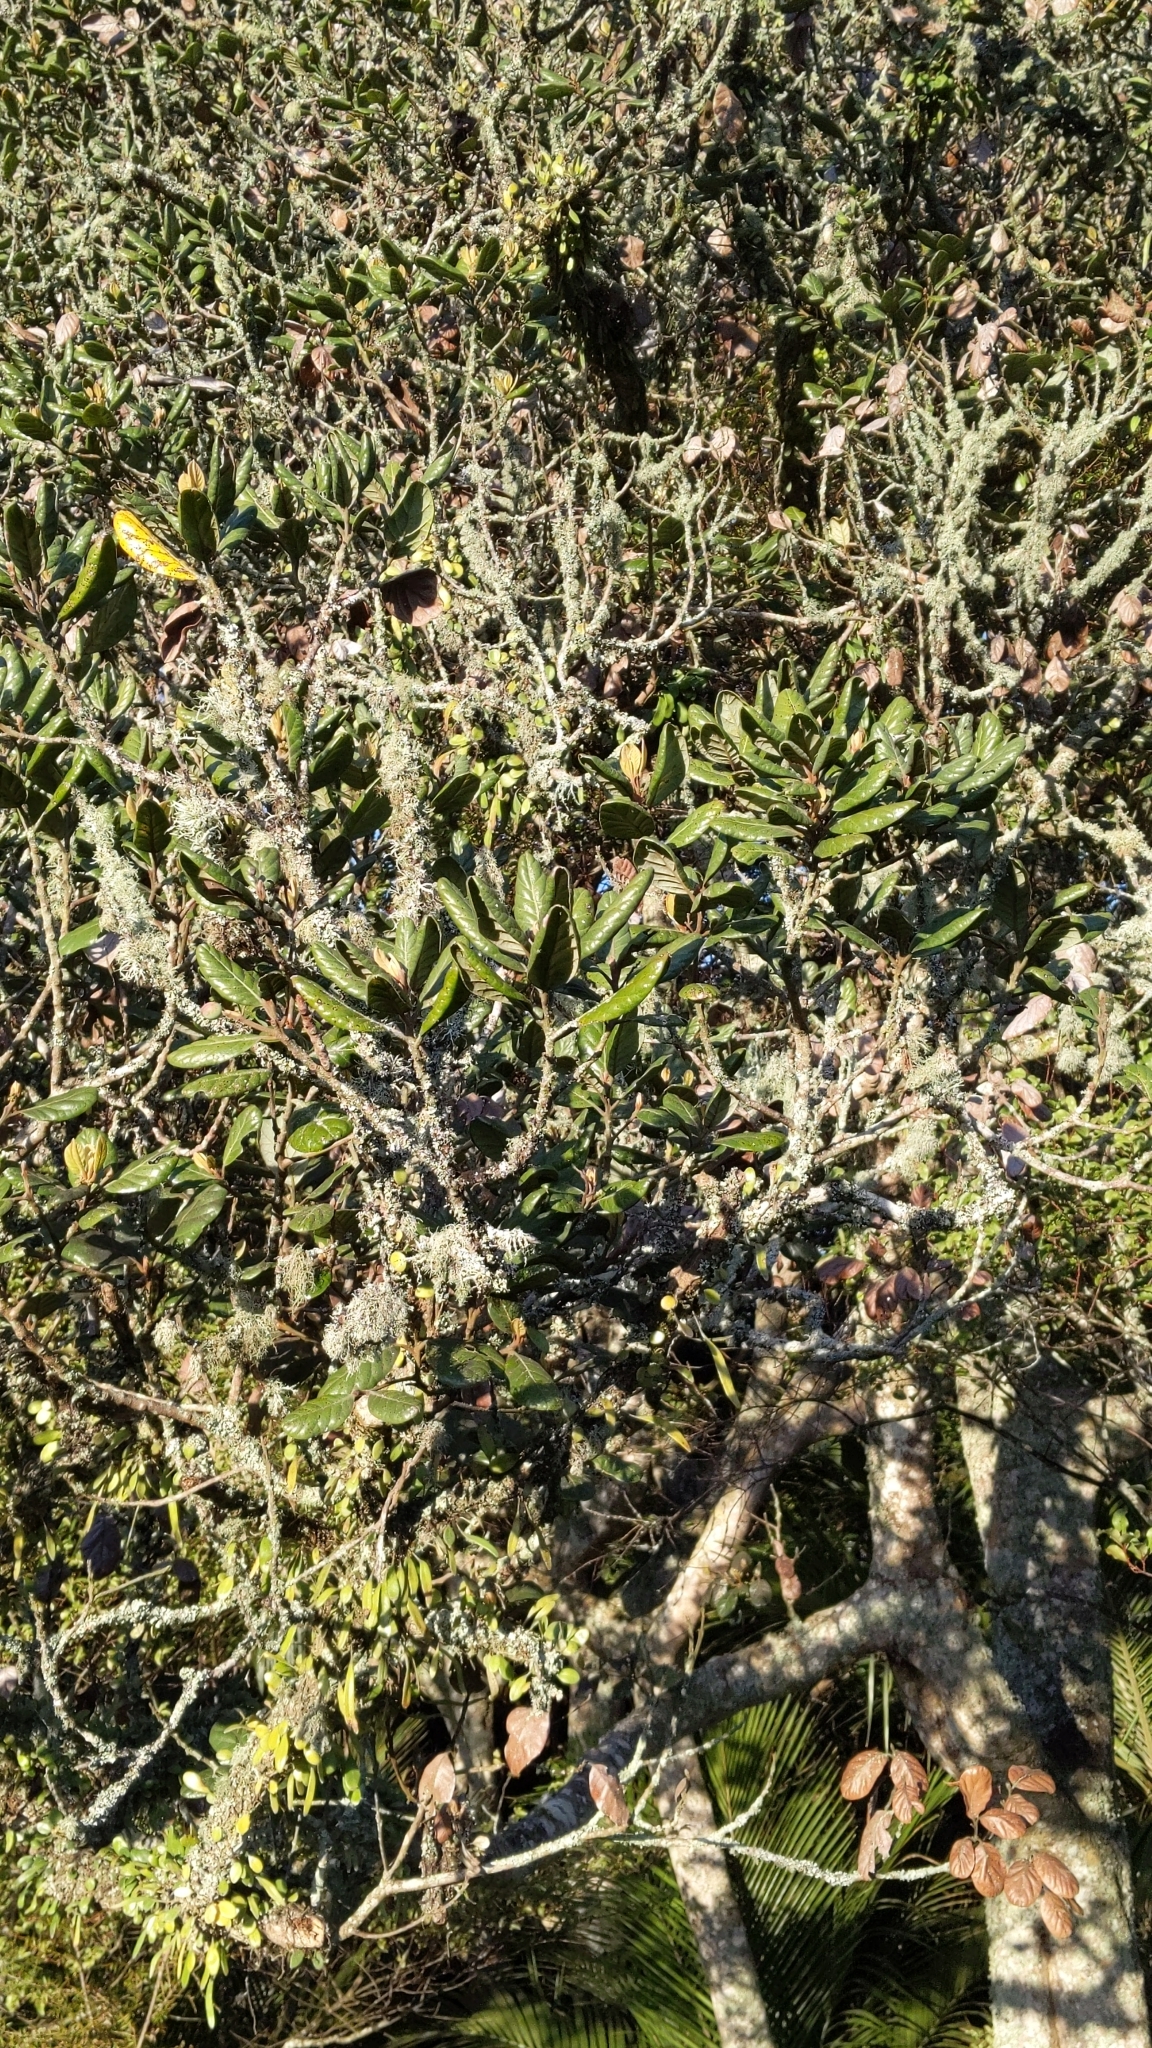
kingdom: Plantae
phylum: Tracheophyta
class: Magnoliopsida
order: Laurales
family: Lauraceae
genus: Beilschmiedia
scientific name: Beilschmiedia tarairi
